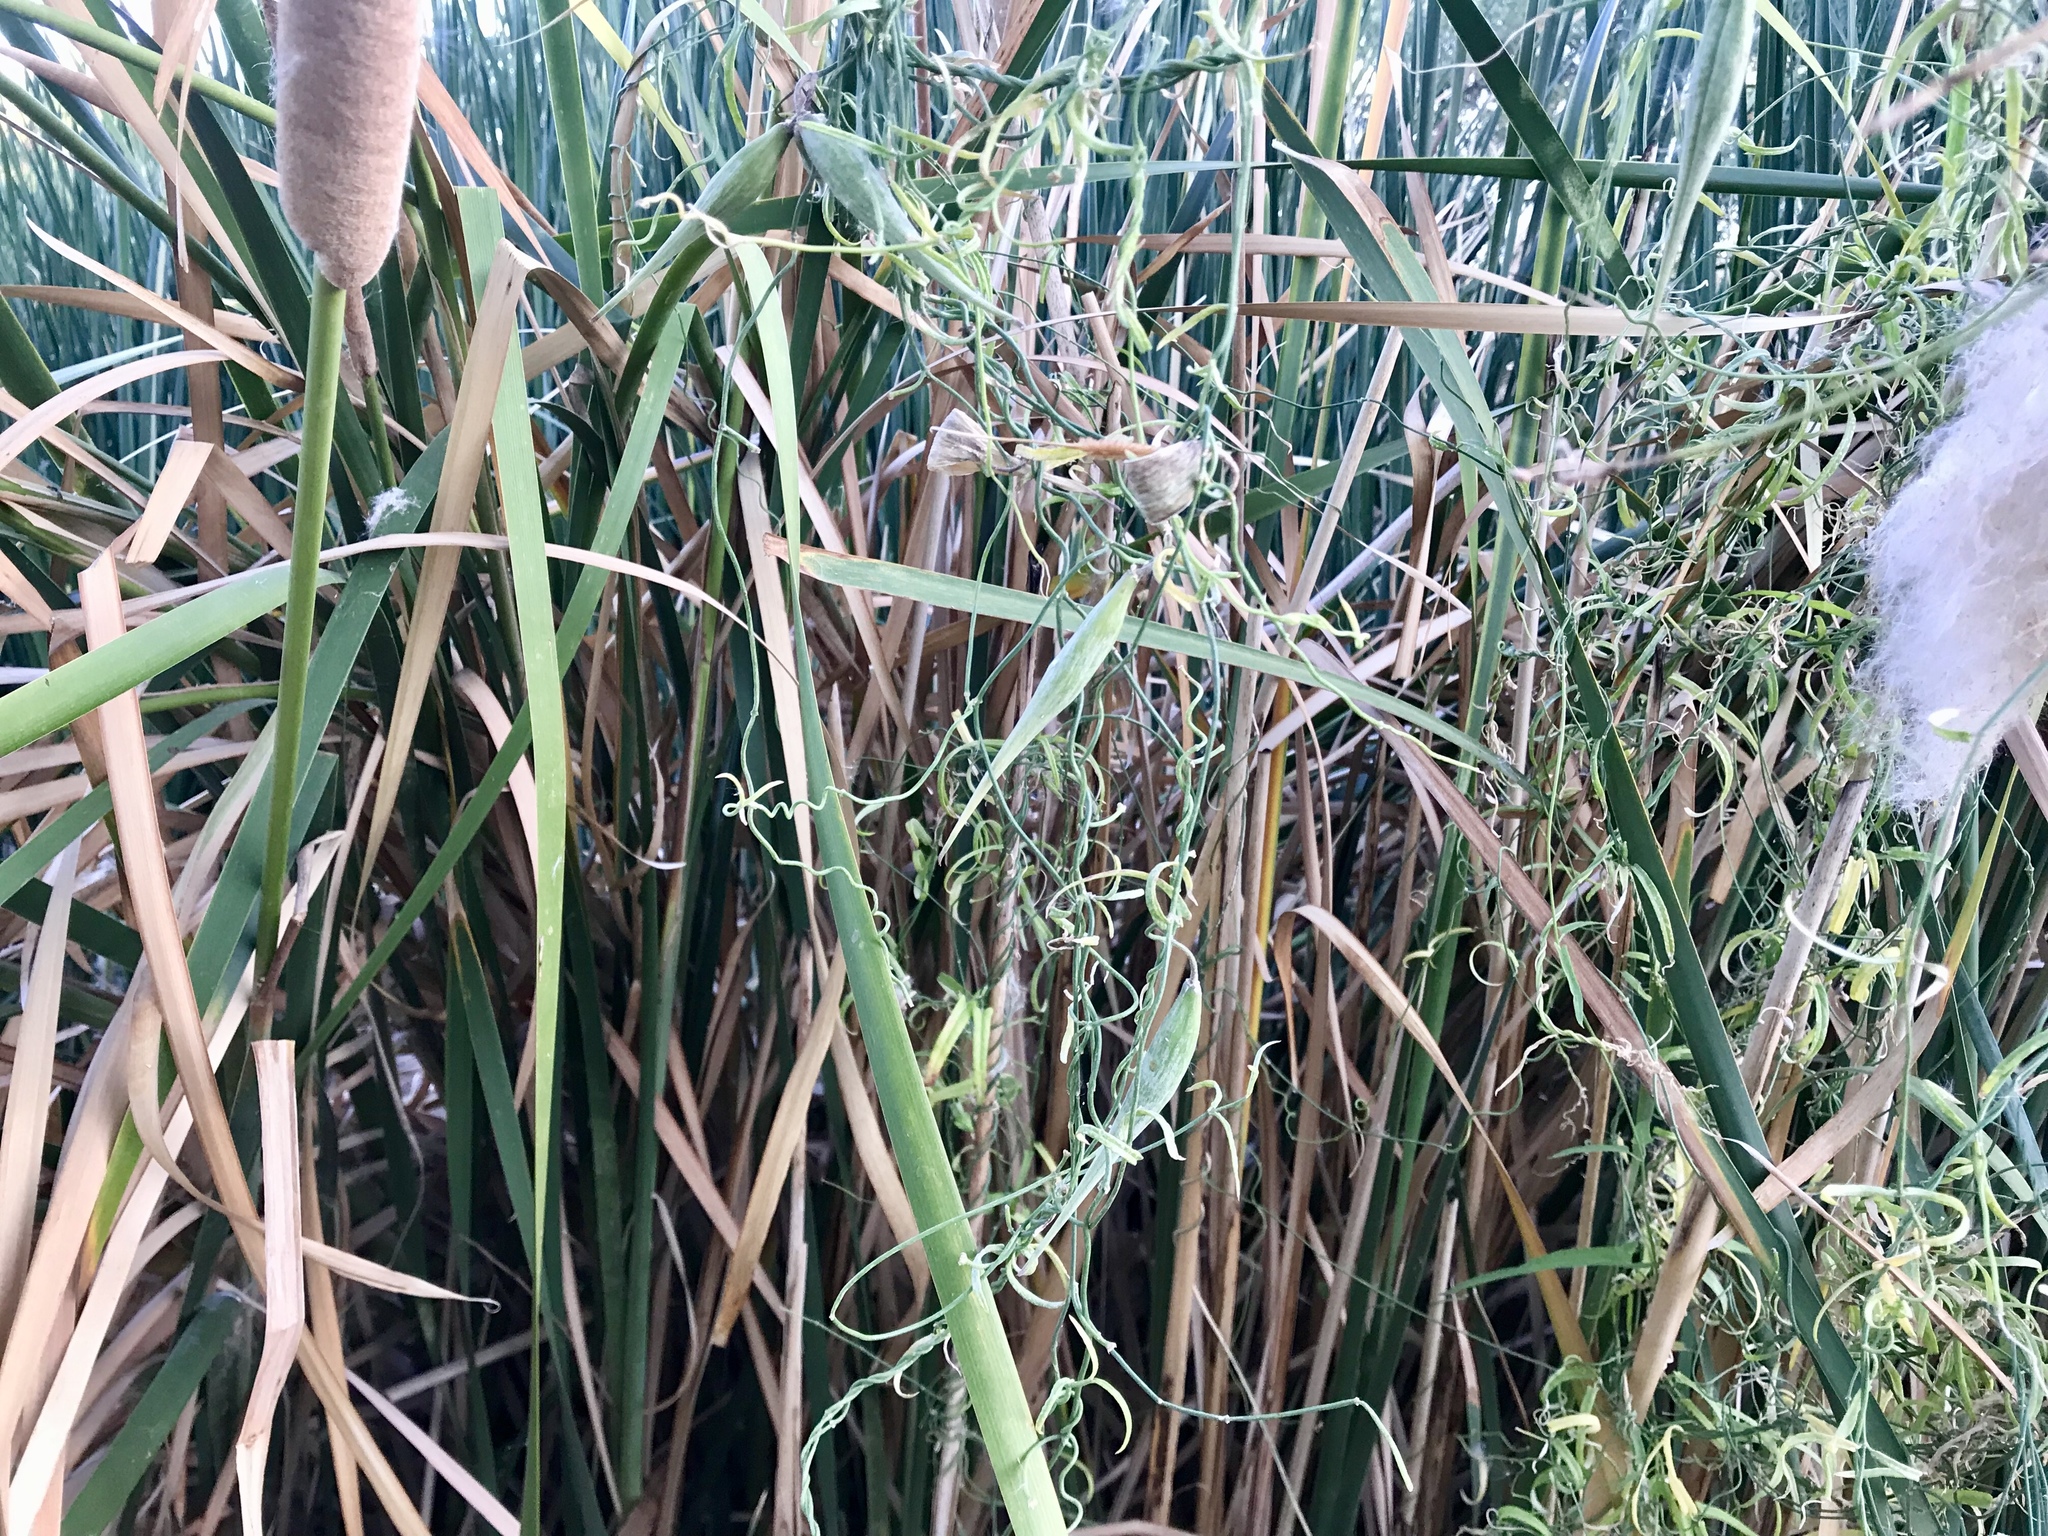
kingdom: Plantae
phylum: Tracheophyta
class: Magnoliopsida
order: Gentianales
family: Apocynaceae
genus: Funastrum
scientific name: Funastrum heterophyllum
